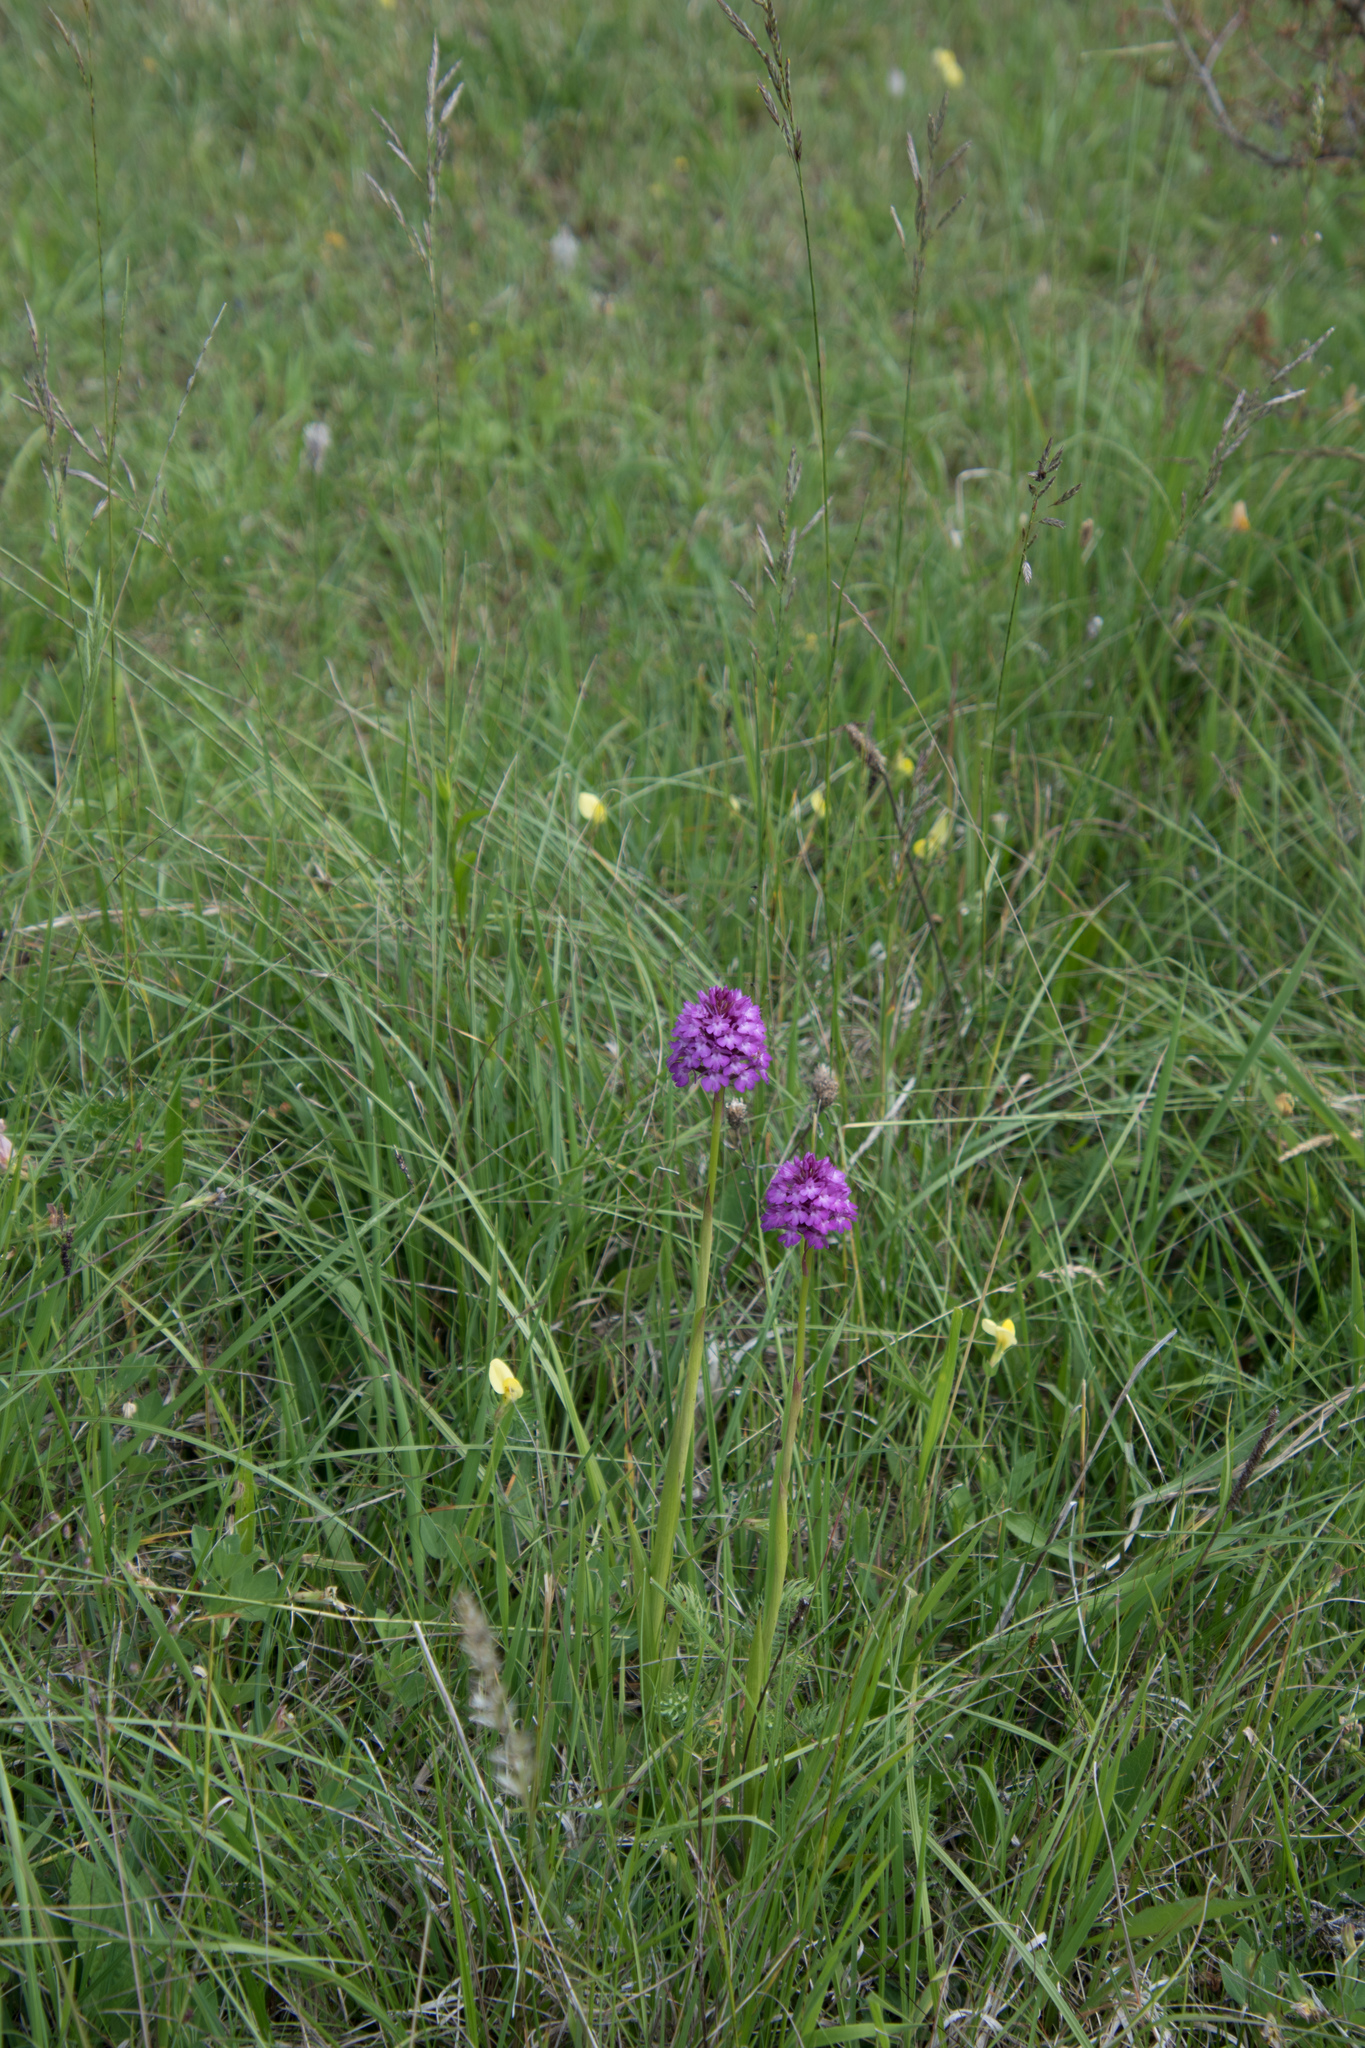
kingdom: Plantae
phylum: Tracheophyta
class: Liliopsida
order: Asparagales
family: Orchidaceae
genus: Anacamptis
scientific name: Anacamptis pyramidalis
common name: Pyramidal orchid
